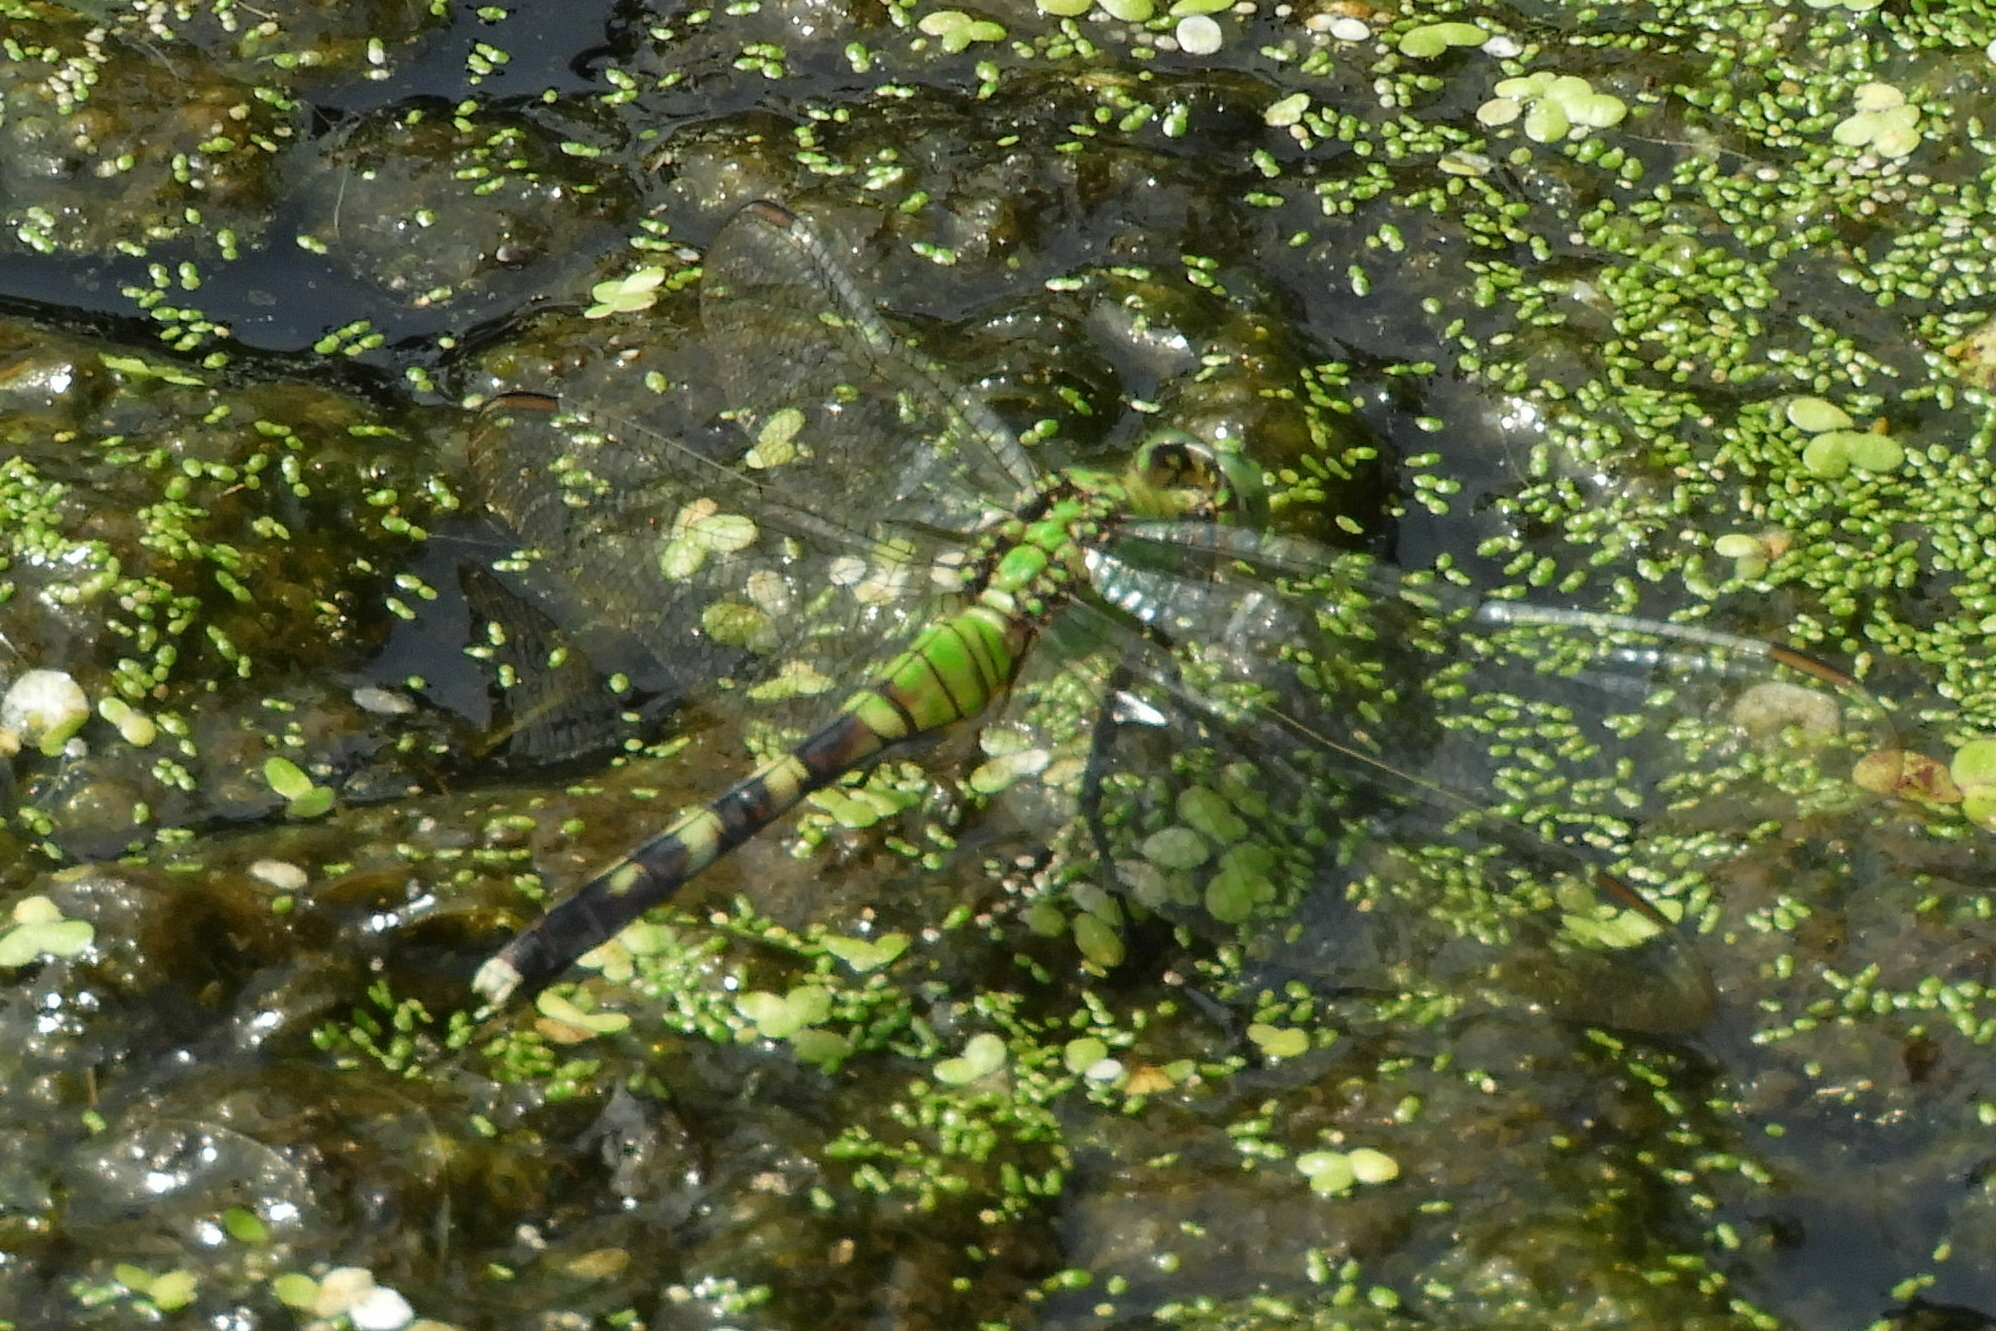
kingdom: Animalia
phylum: Arthropoda
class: Insecta
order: Odonata
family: Libellulidae
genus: Erythemis
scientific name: Erythemis simplicicollis
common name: Eastern pondhawk
